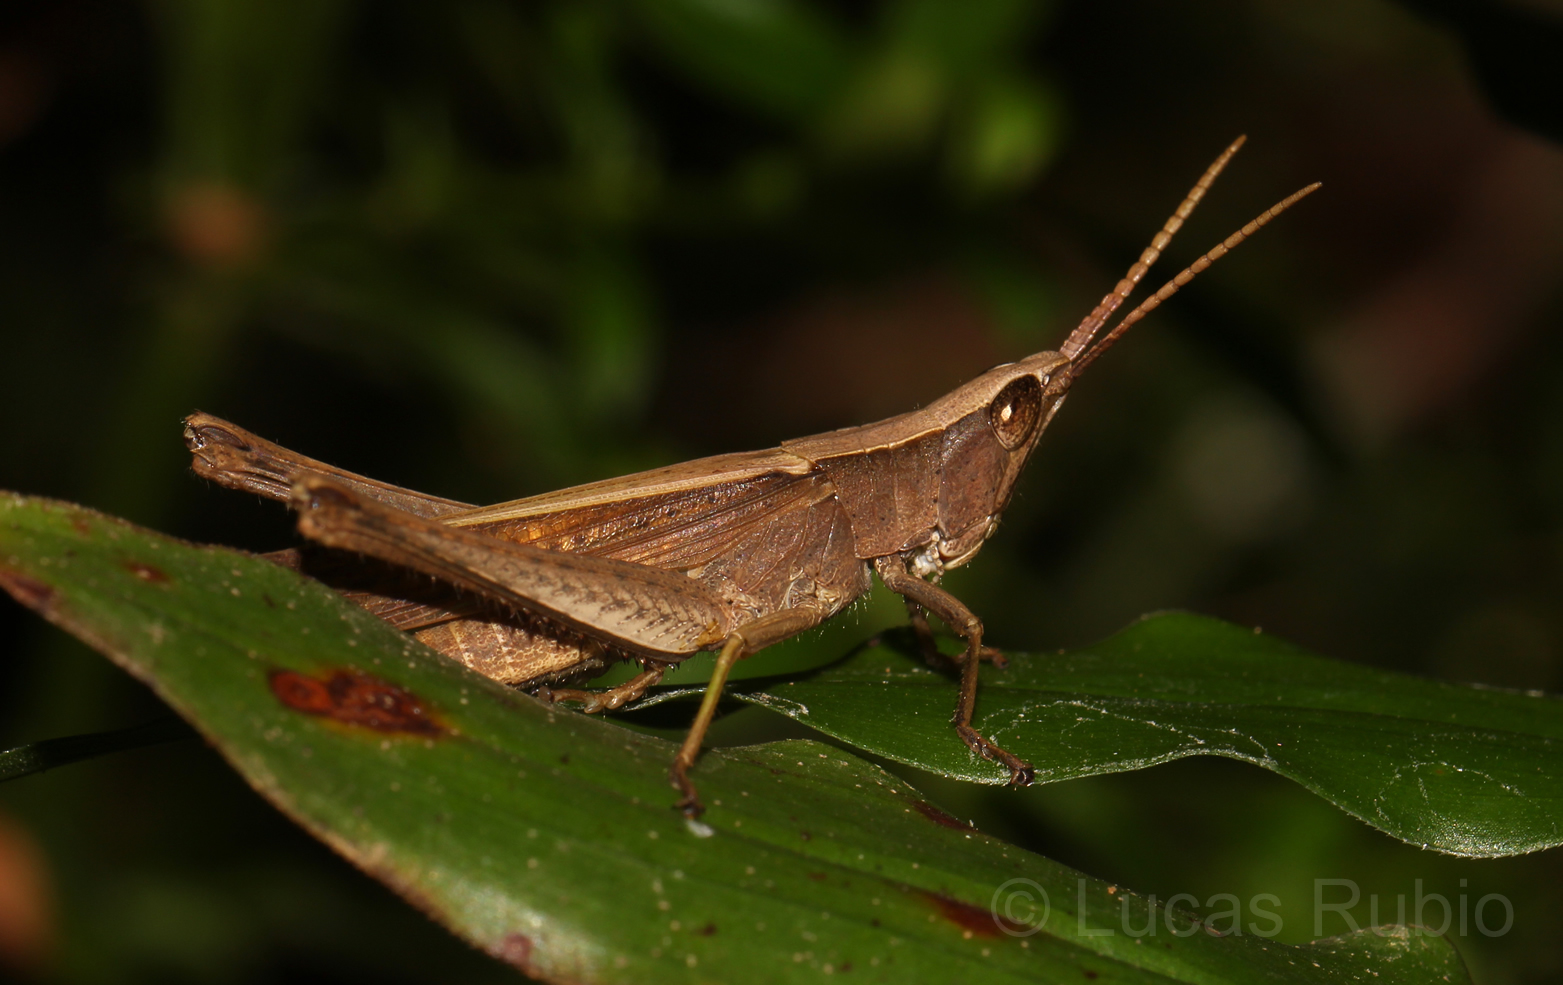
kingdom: Animalia
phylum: Arthropoda
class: Insecta
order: Orthoptera
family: Acrididae
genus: Metaleptea
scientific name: Metaleptea adspersa
